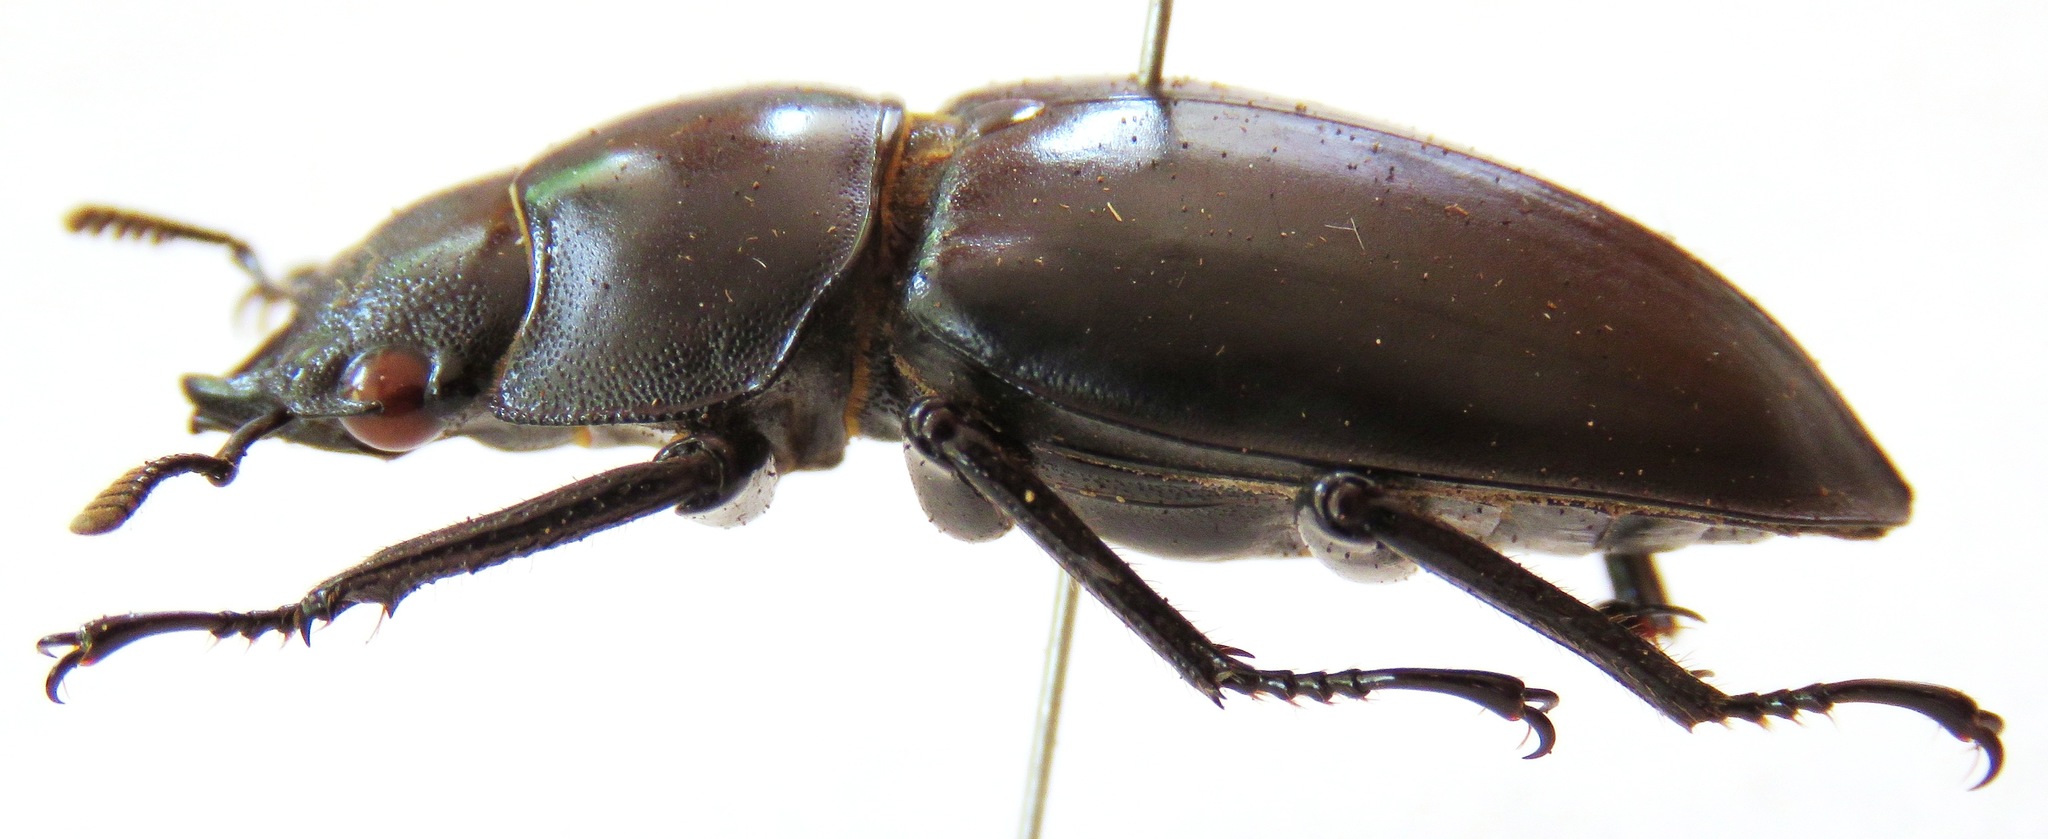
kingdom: Animalia
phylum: Arthropoda
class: Insecta
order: Coleoptera
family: Lucanidae
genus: Hexarthrius
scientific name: Hexarthrius vitalisi
